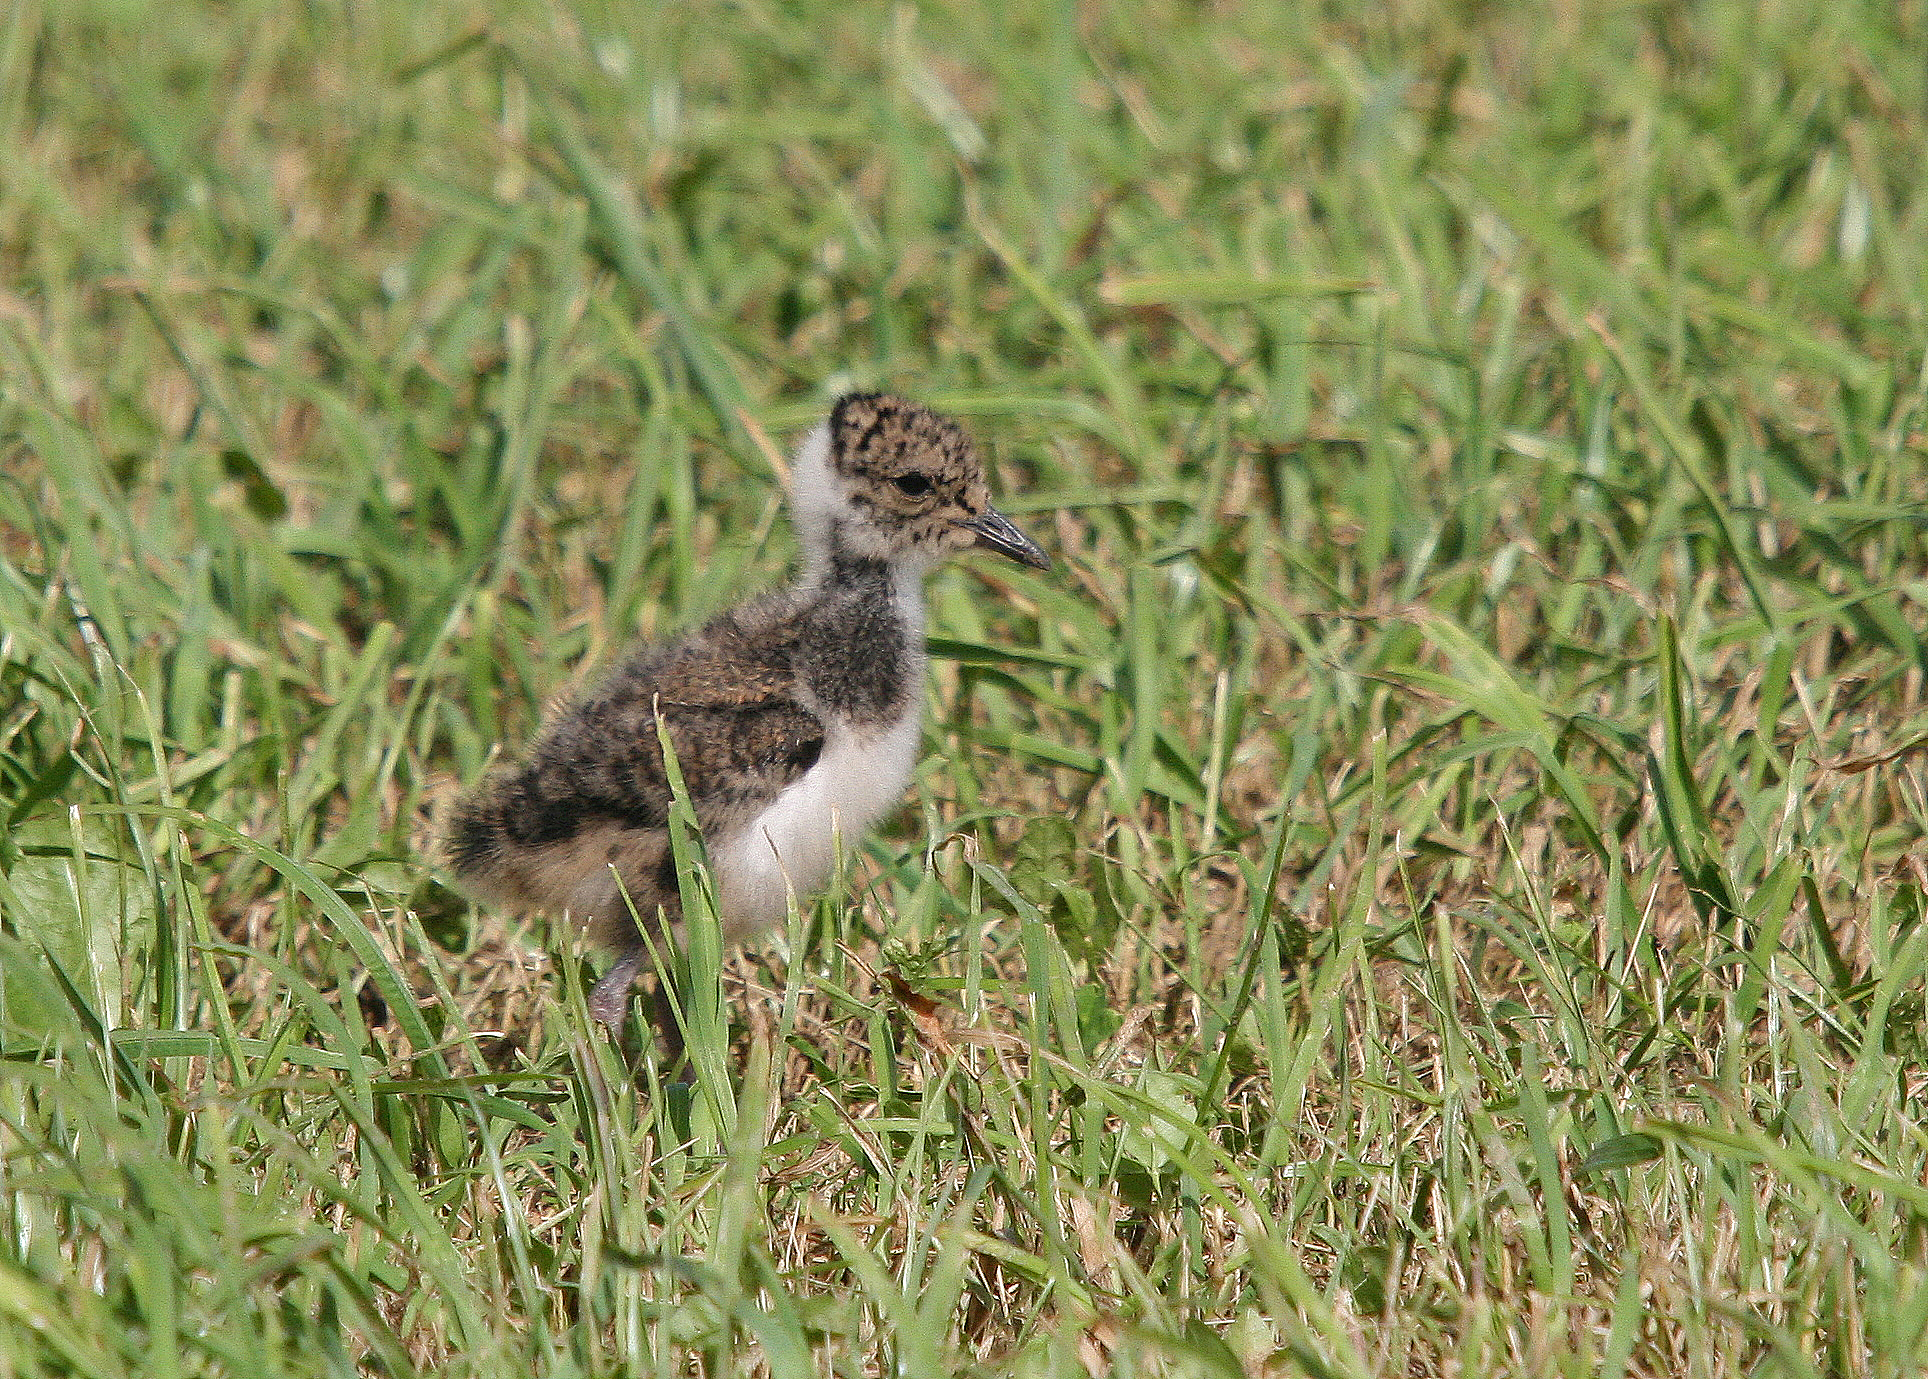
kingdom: Animalia
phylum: Chordata
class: Aves
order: Charadriiformes
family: Charadriidae
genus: Vanellus
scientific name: Vanellus vanellus
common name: Northern lapwing
